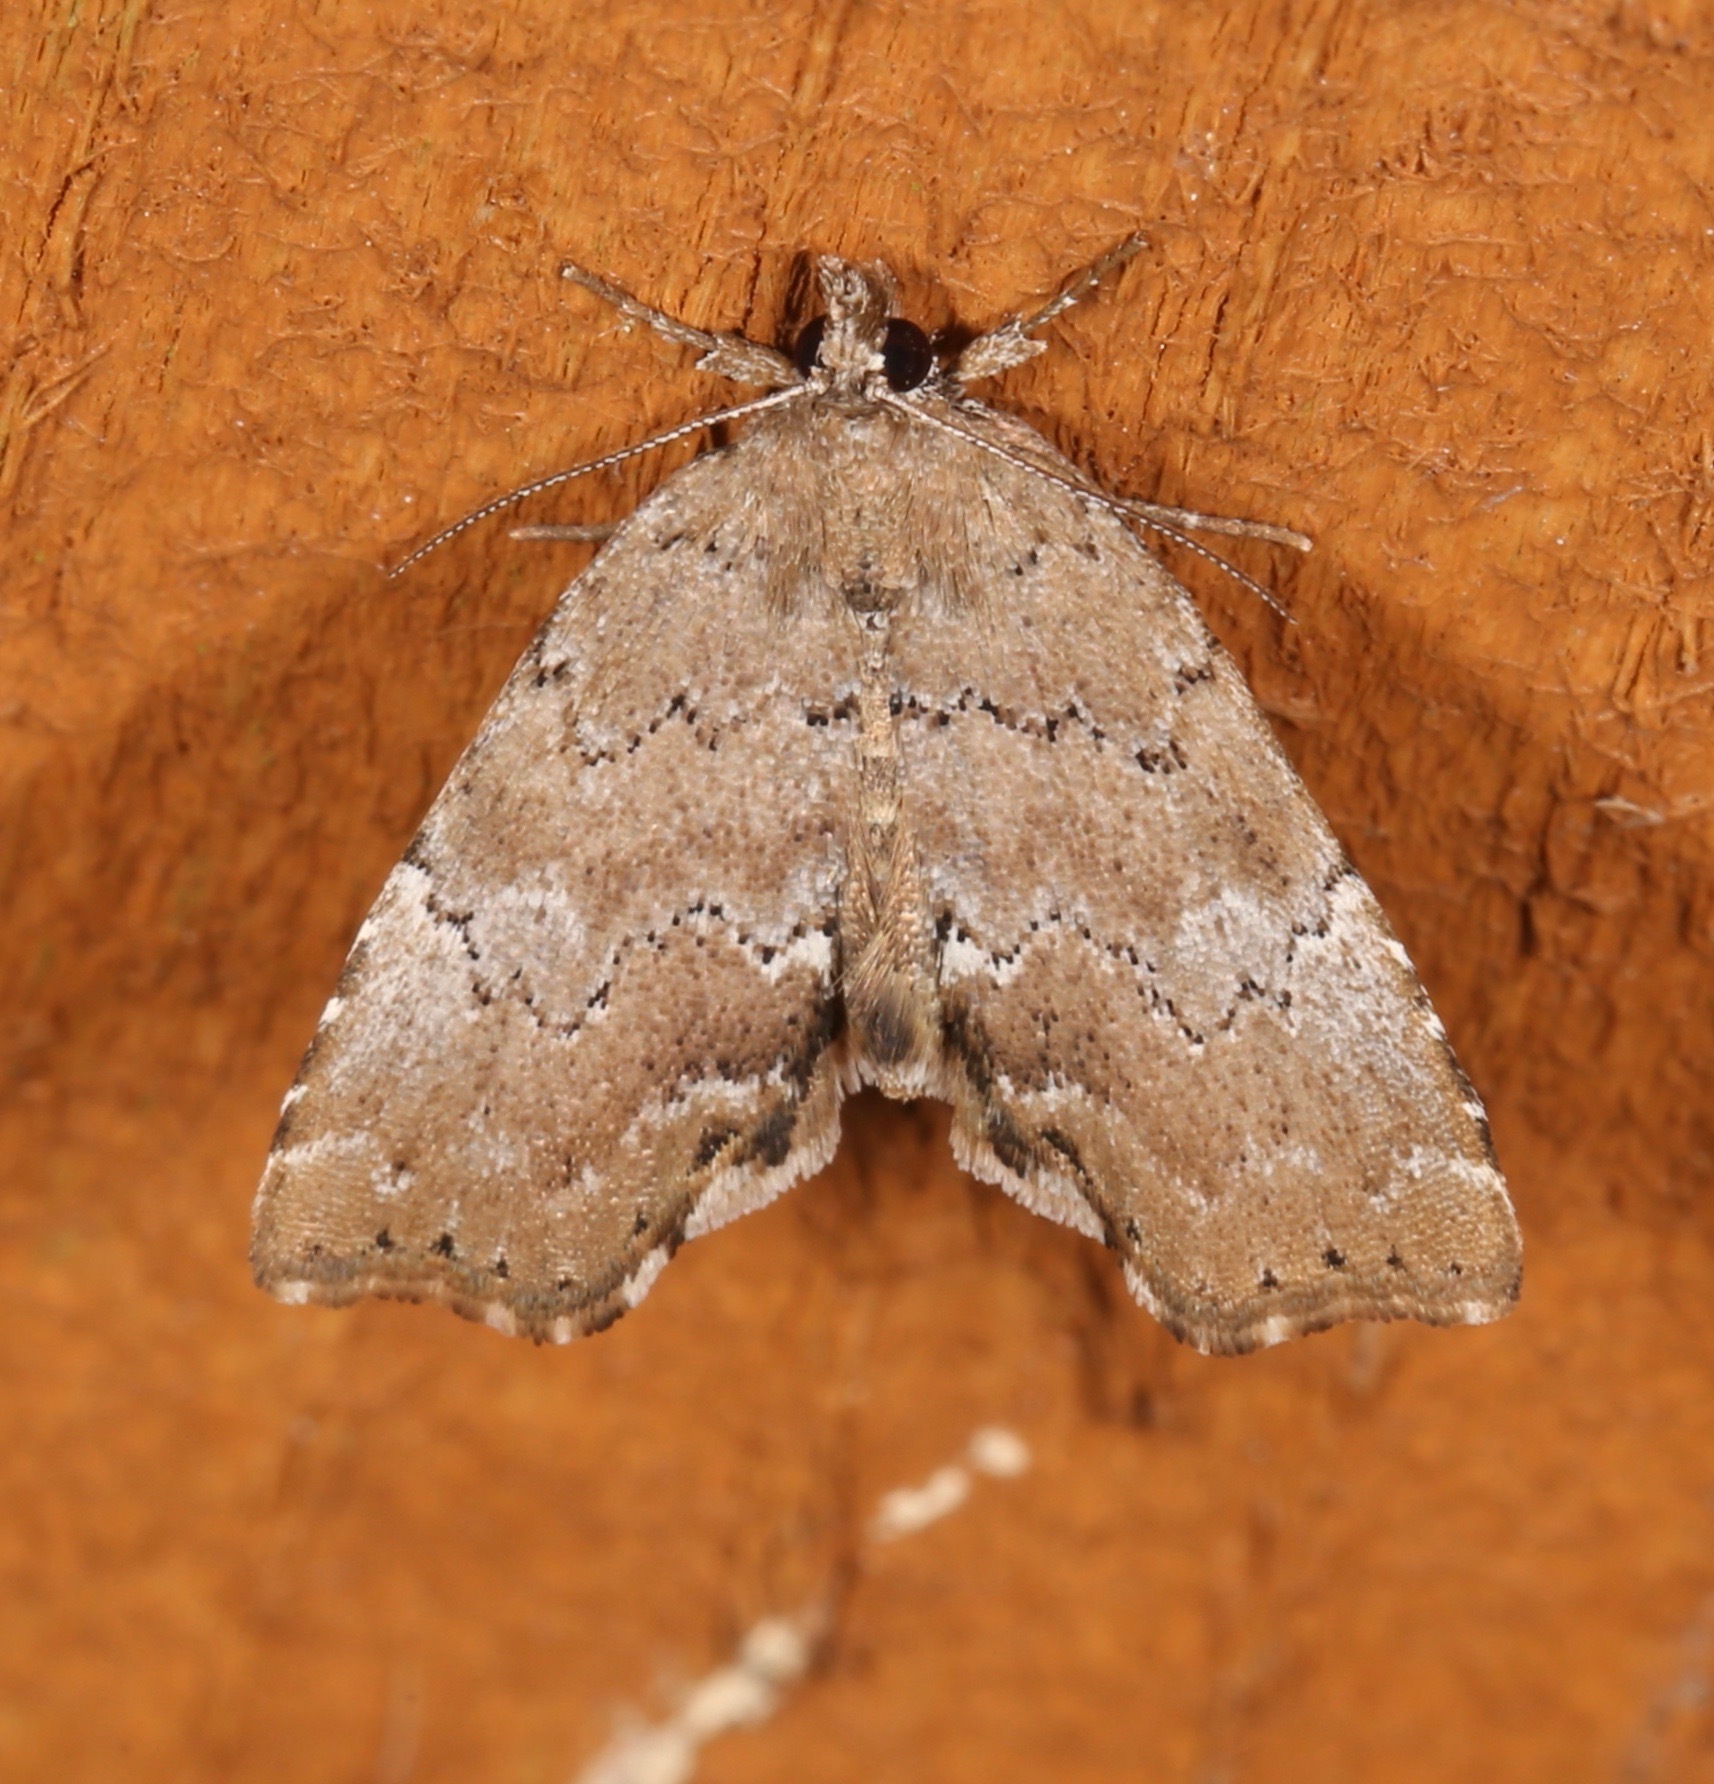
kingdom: Animalia
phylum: Arthropoda
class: Insecta
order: Lepidoptera
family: Erebidae
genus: Cutina
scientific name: Cutina aluticolor
